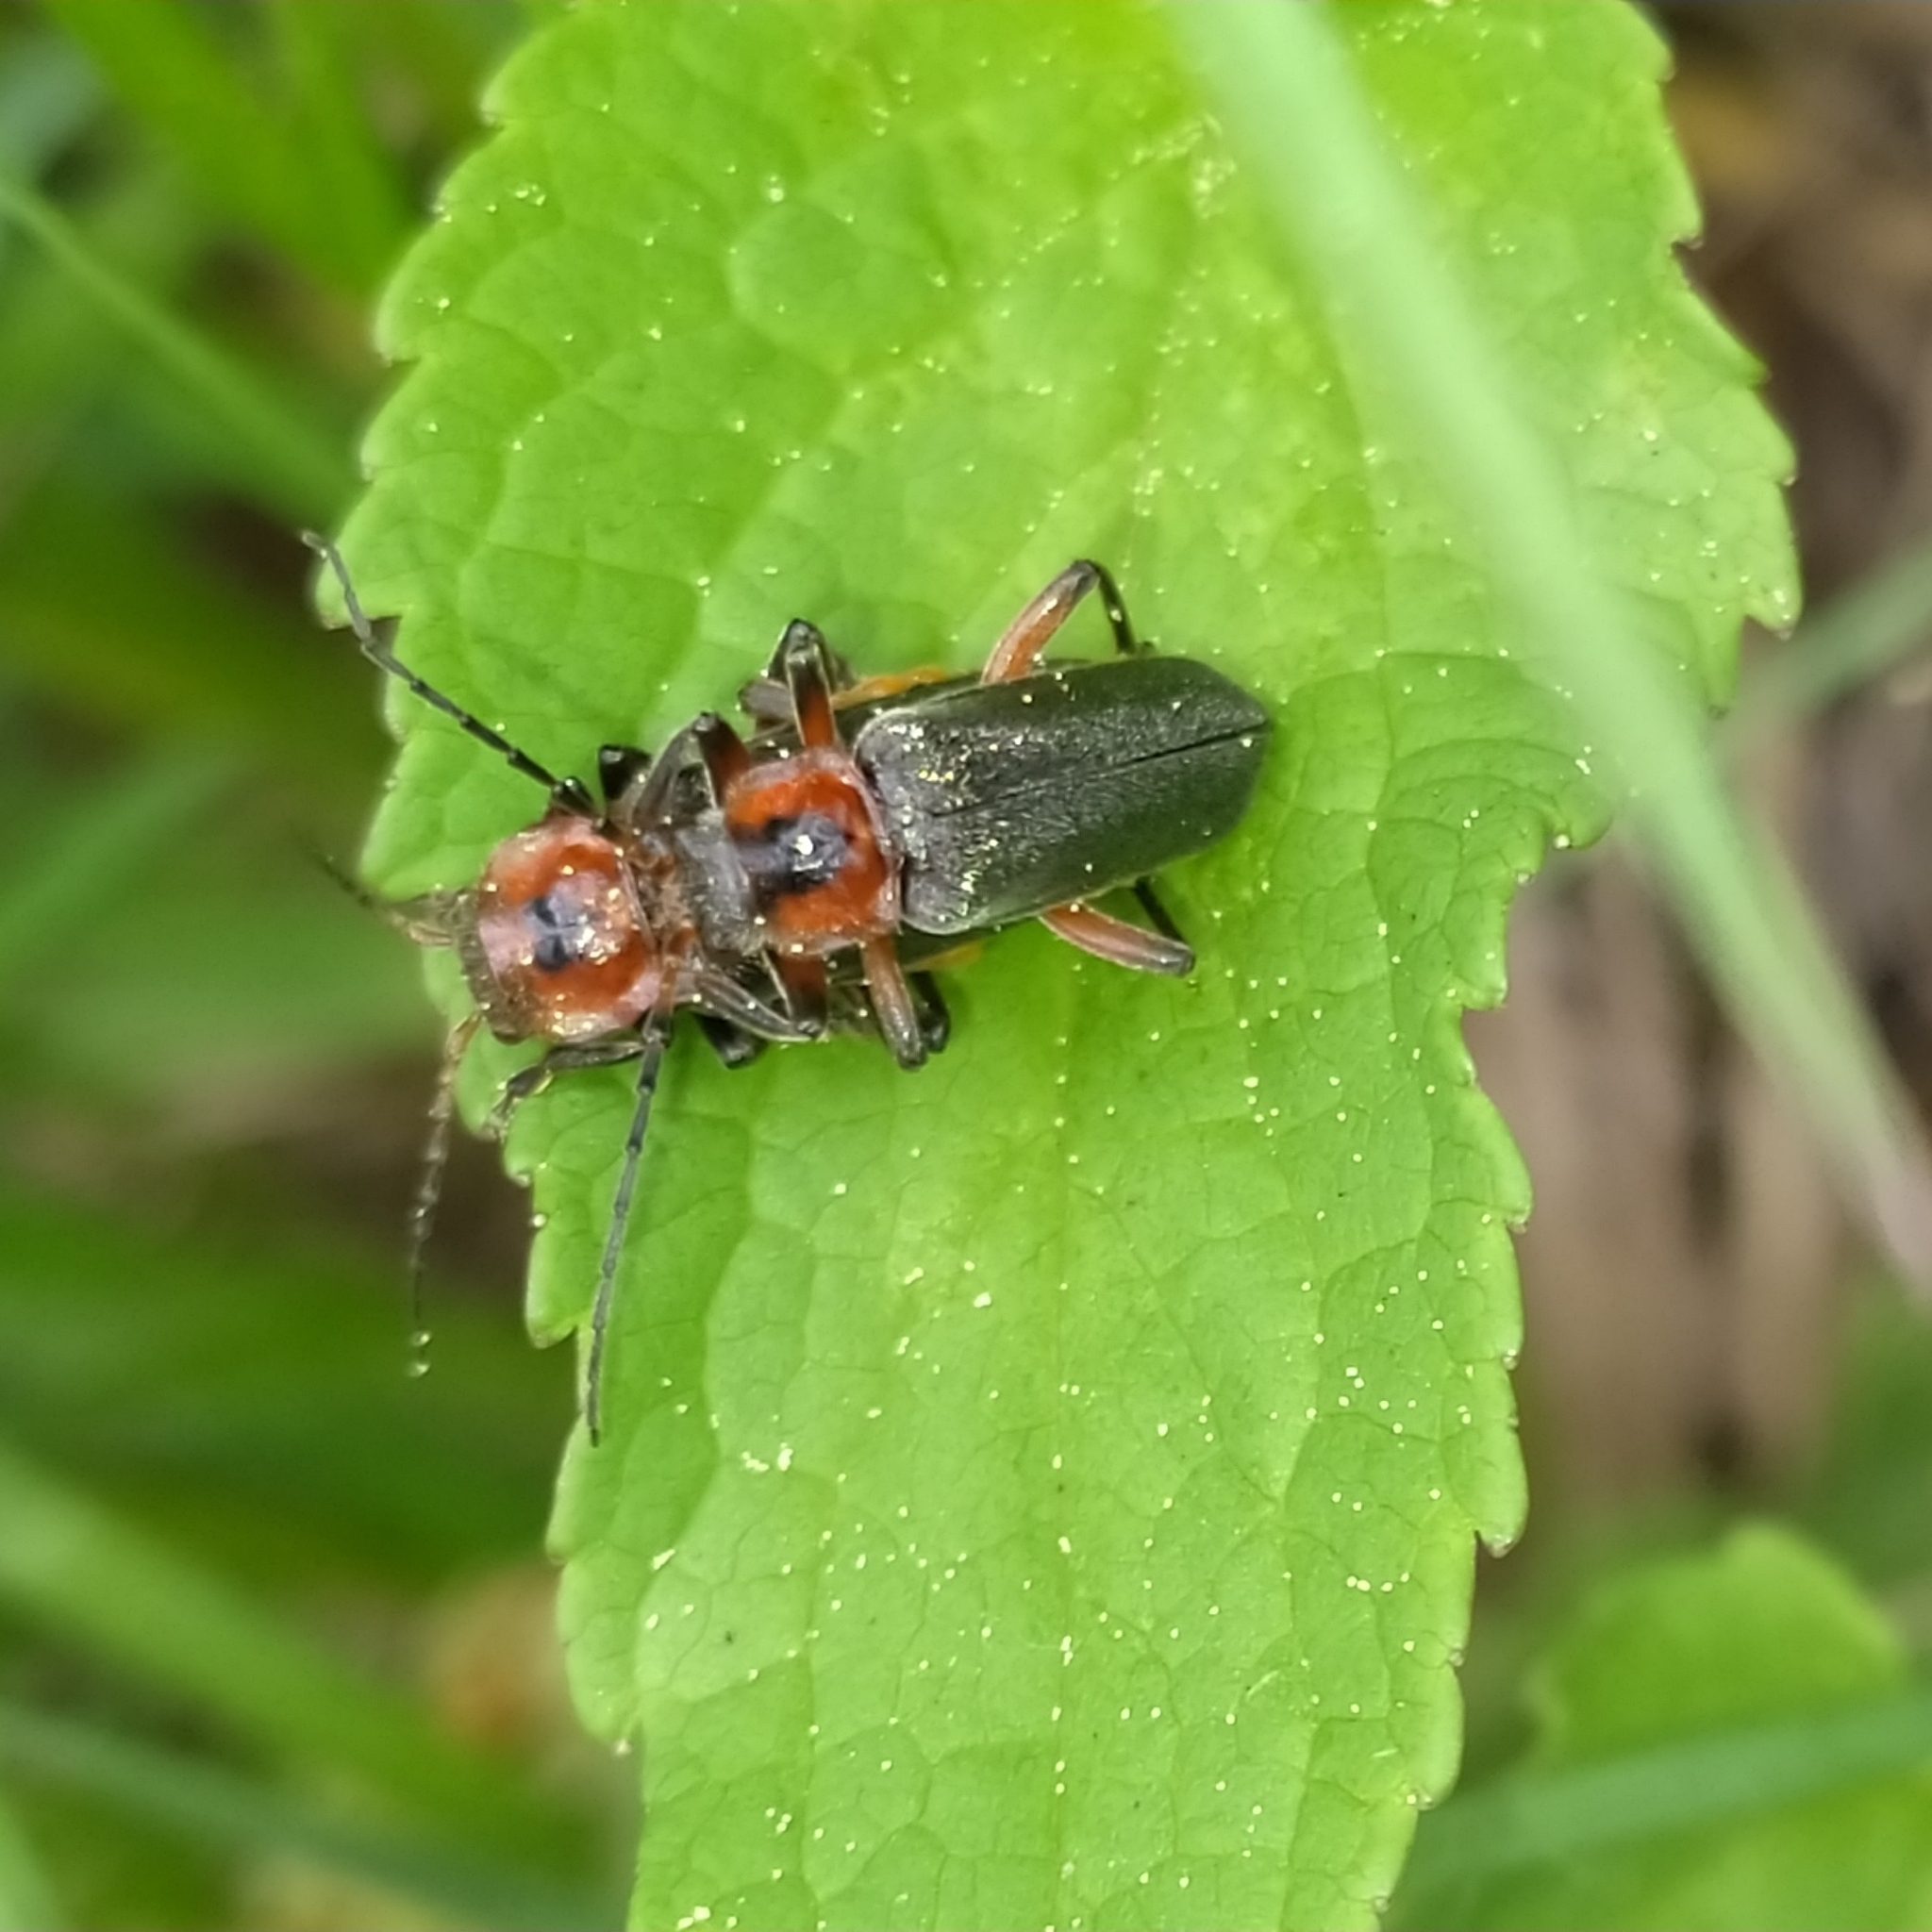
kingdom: Animalia
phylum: Arthropoda
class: Insecta
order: Coleoptera
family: Cantharidae
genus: Cantharis
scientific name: Cantharis rustica
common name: Soldier beetle
